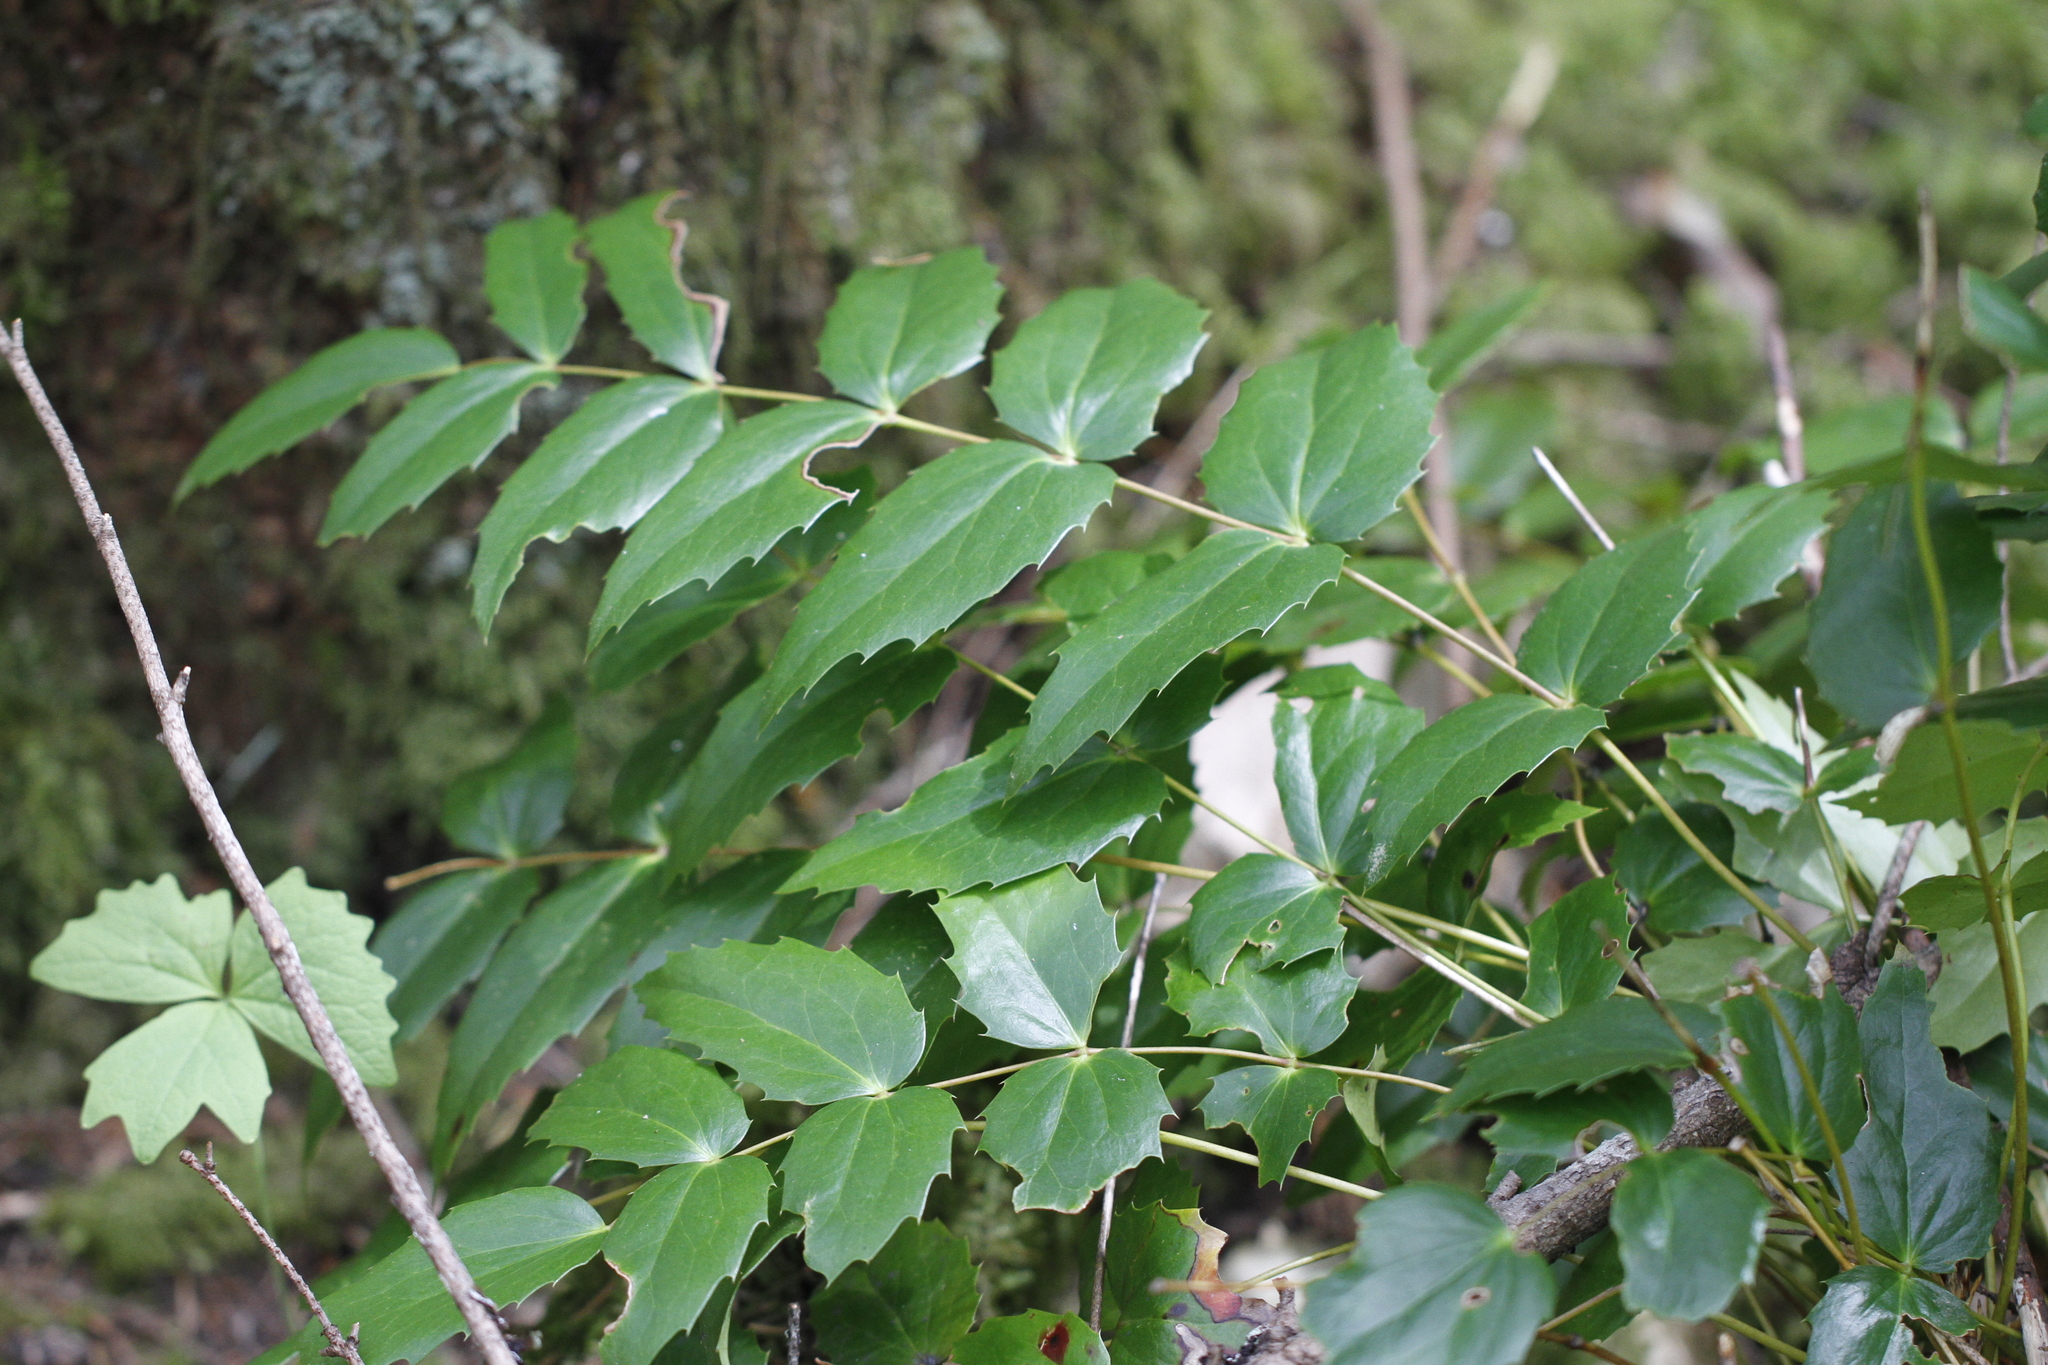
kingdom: Plantae
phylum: Tracheophyta
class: Magnoliopsida
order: Ranunculales
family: Berberidaceae
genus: Mahonia
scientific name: Mahonia nervosa
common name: Cascade oregon-grape
